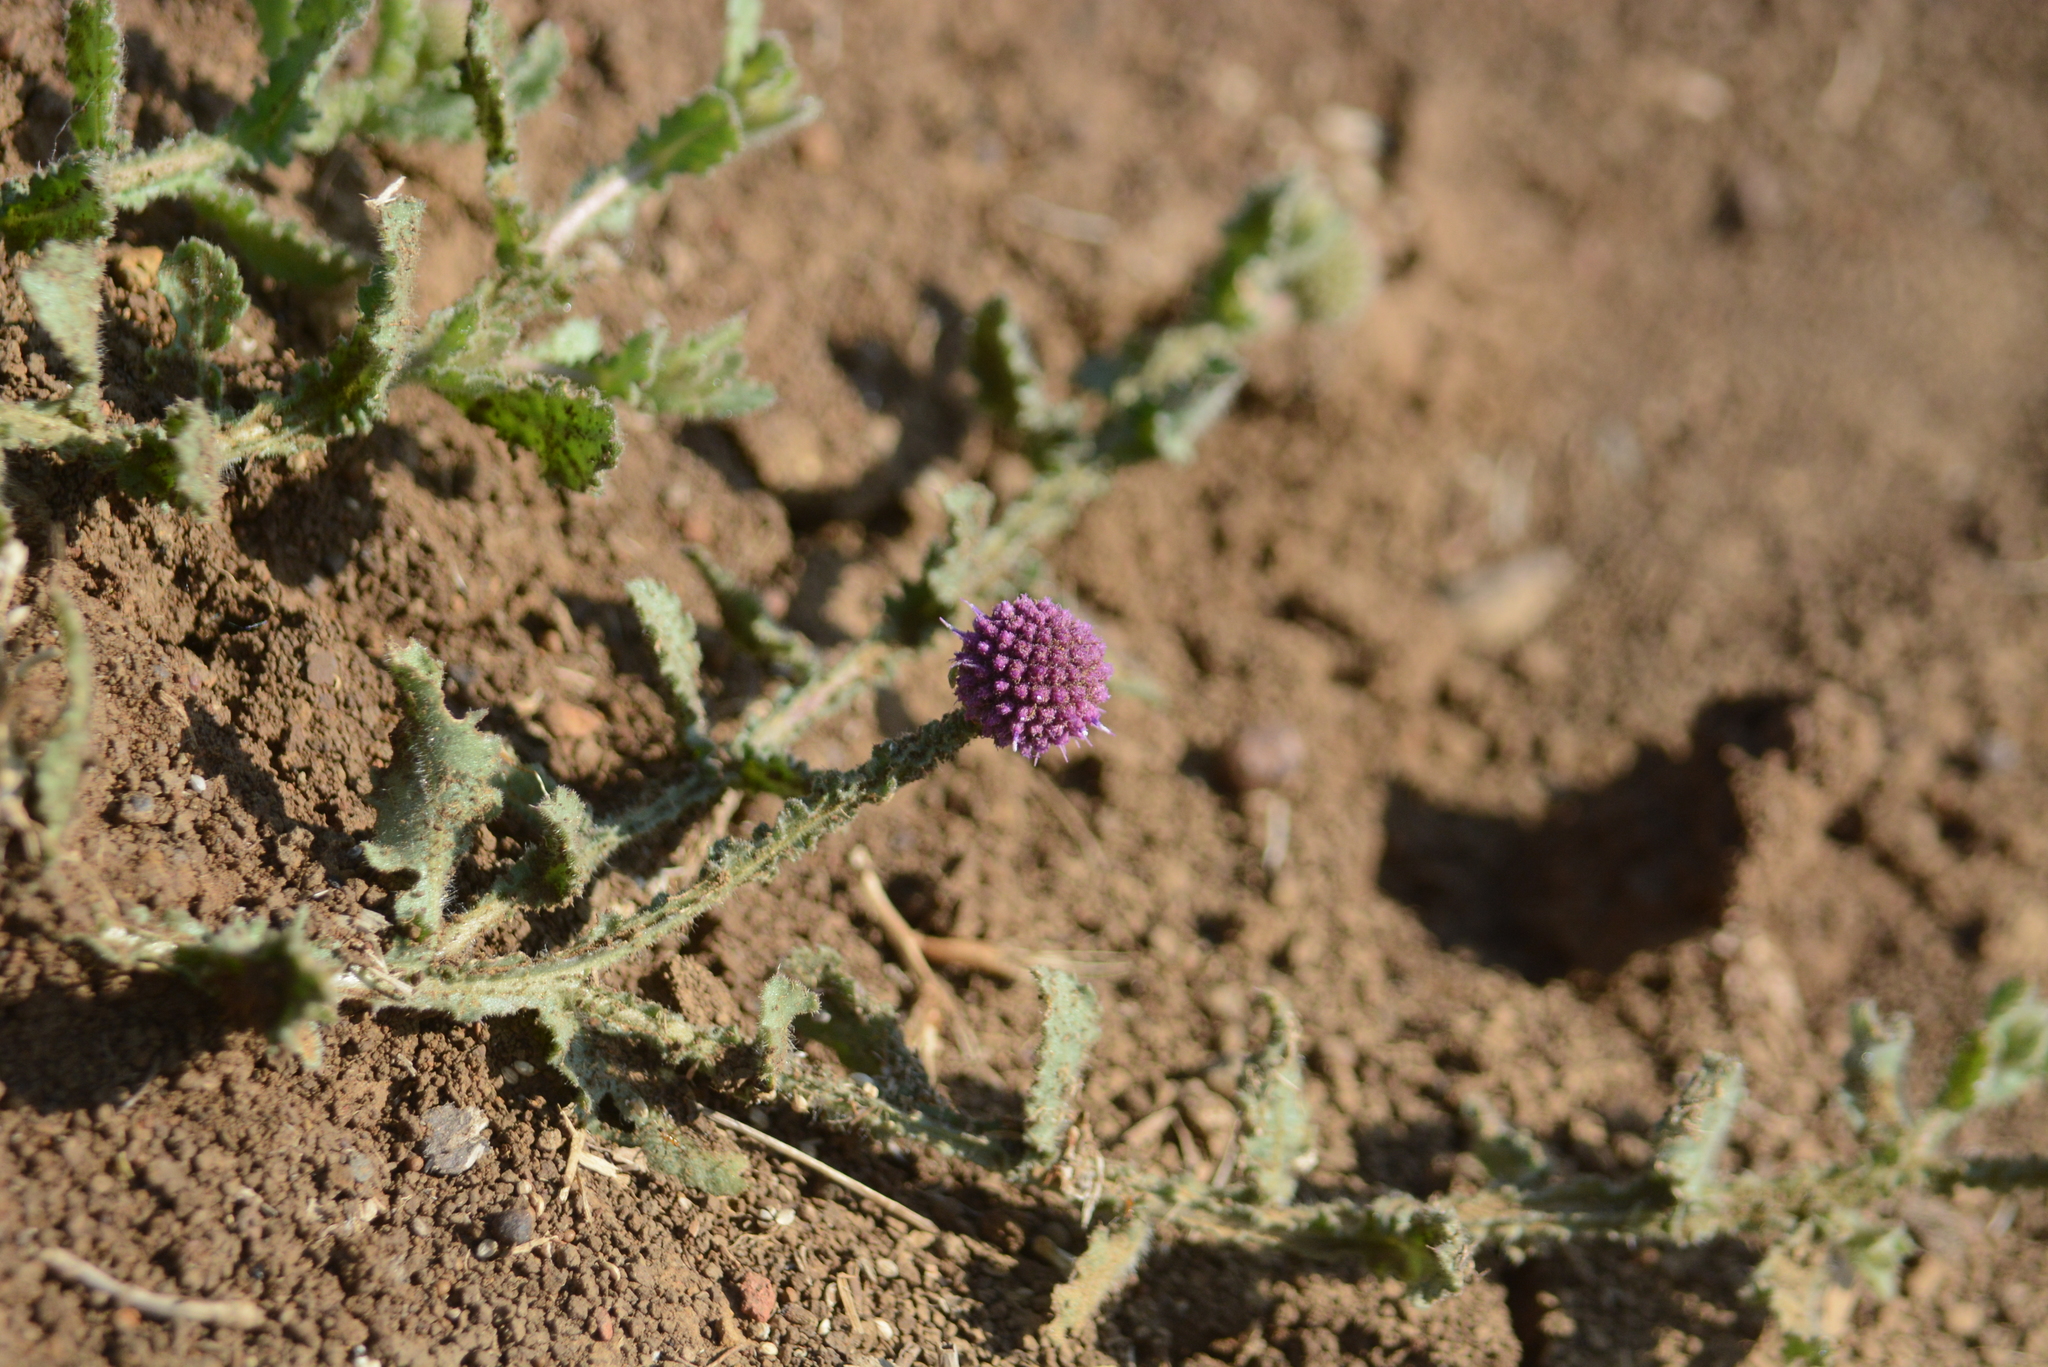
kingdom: Plantae
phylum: Tracheophyta
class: Magnoliopsida
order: Asterales
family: Asteraceae
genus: Sphaeranthus
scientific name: Sphaeranthus indicus
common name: East indian globe thistle
